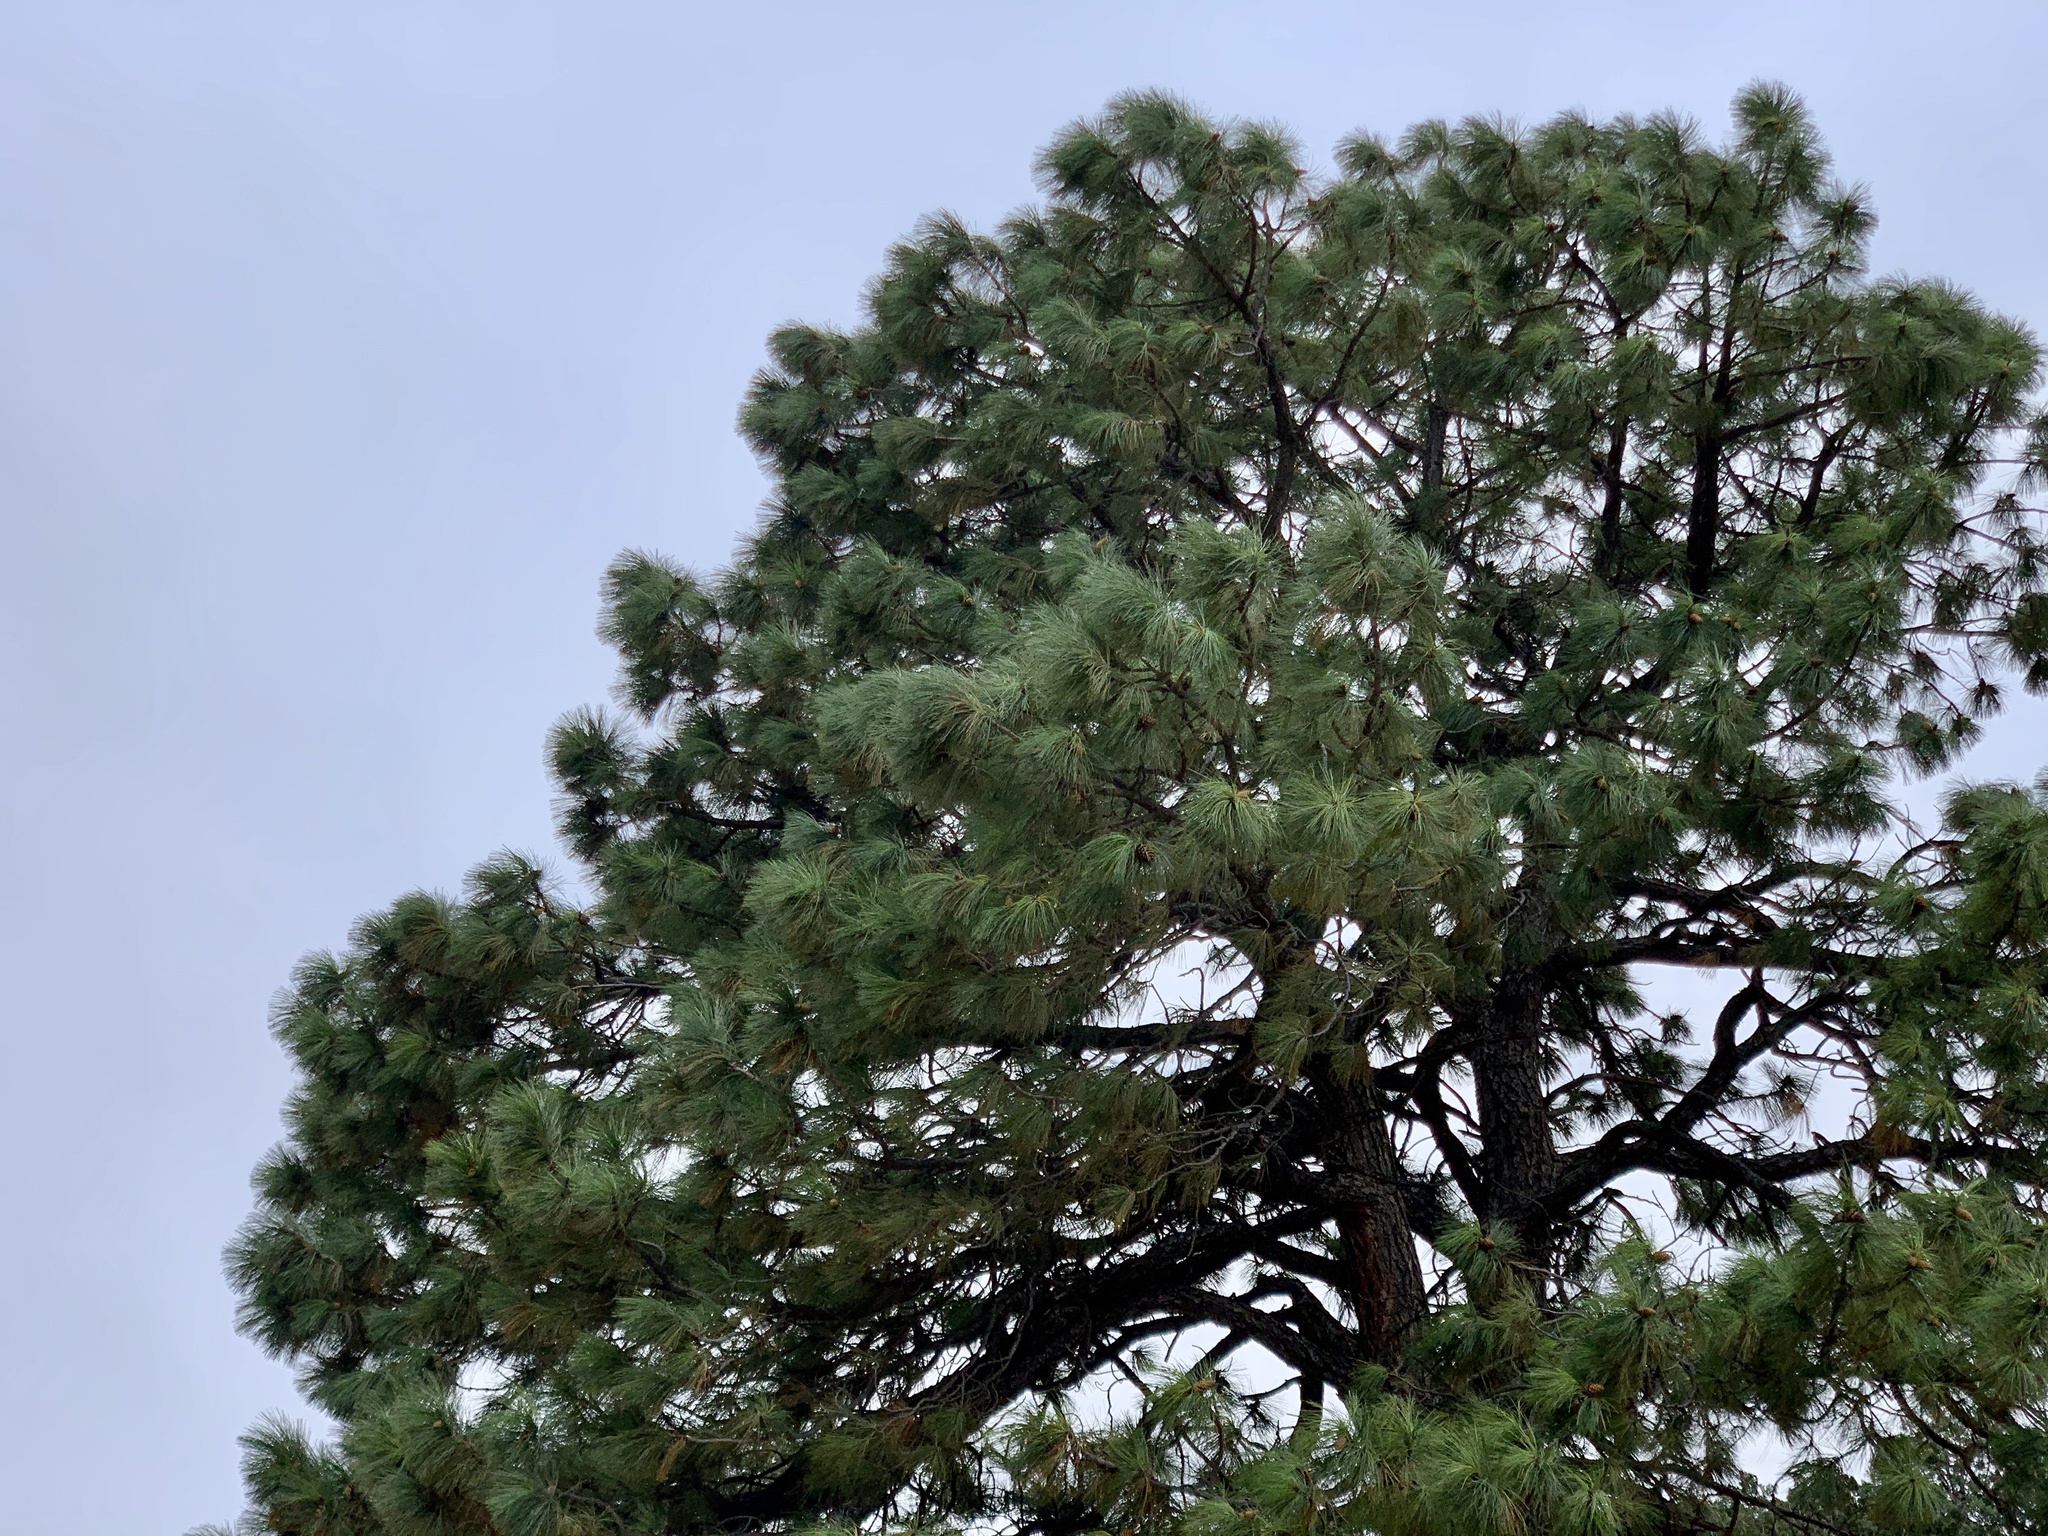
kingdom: Plantae
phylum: Tracheophyta
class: Pinopsida
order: Pinales
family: Pinaceae
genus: Pinus
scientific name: Pinus ponderosa
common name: Western yellow-pine
